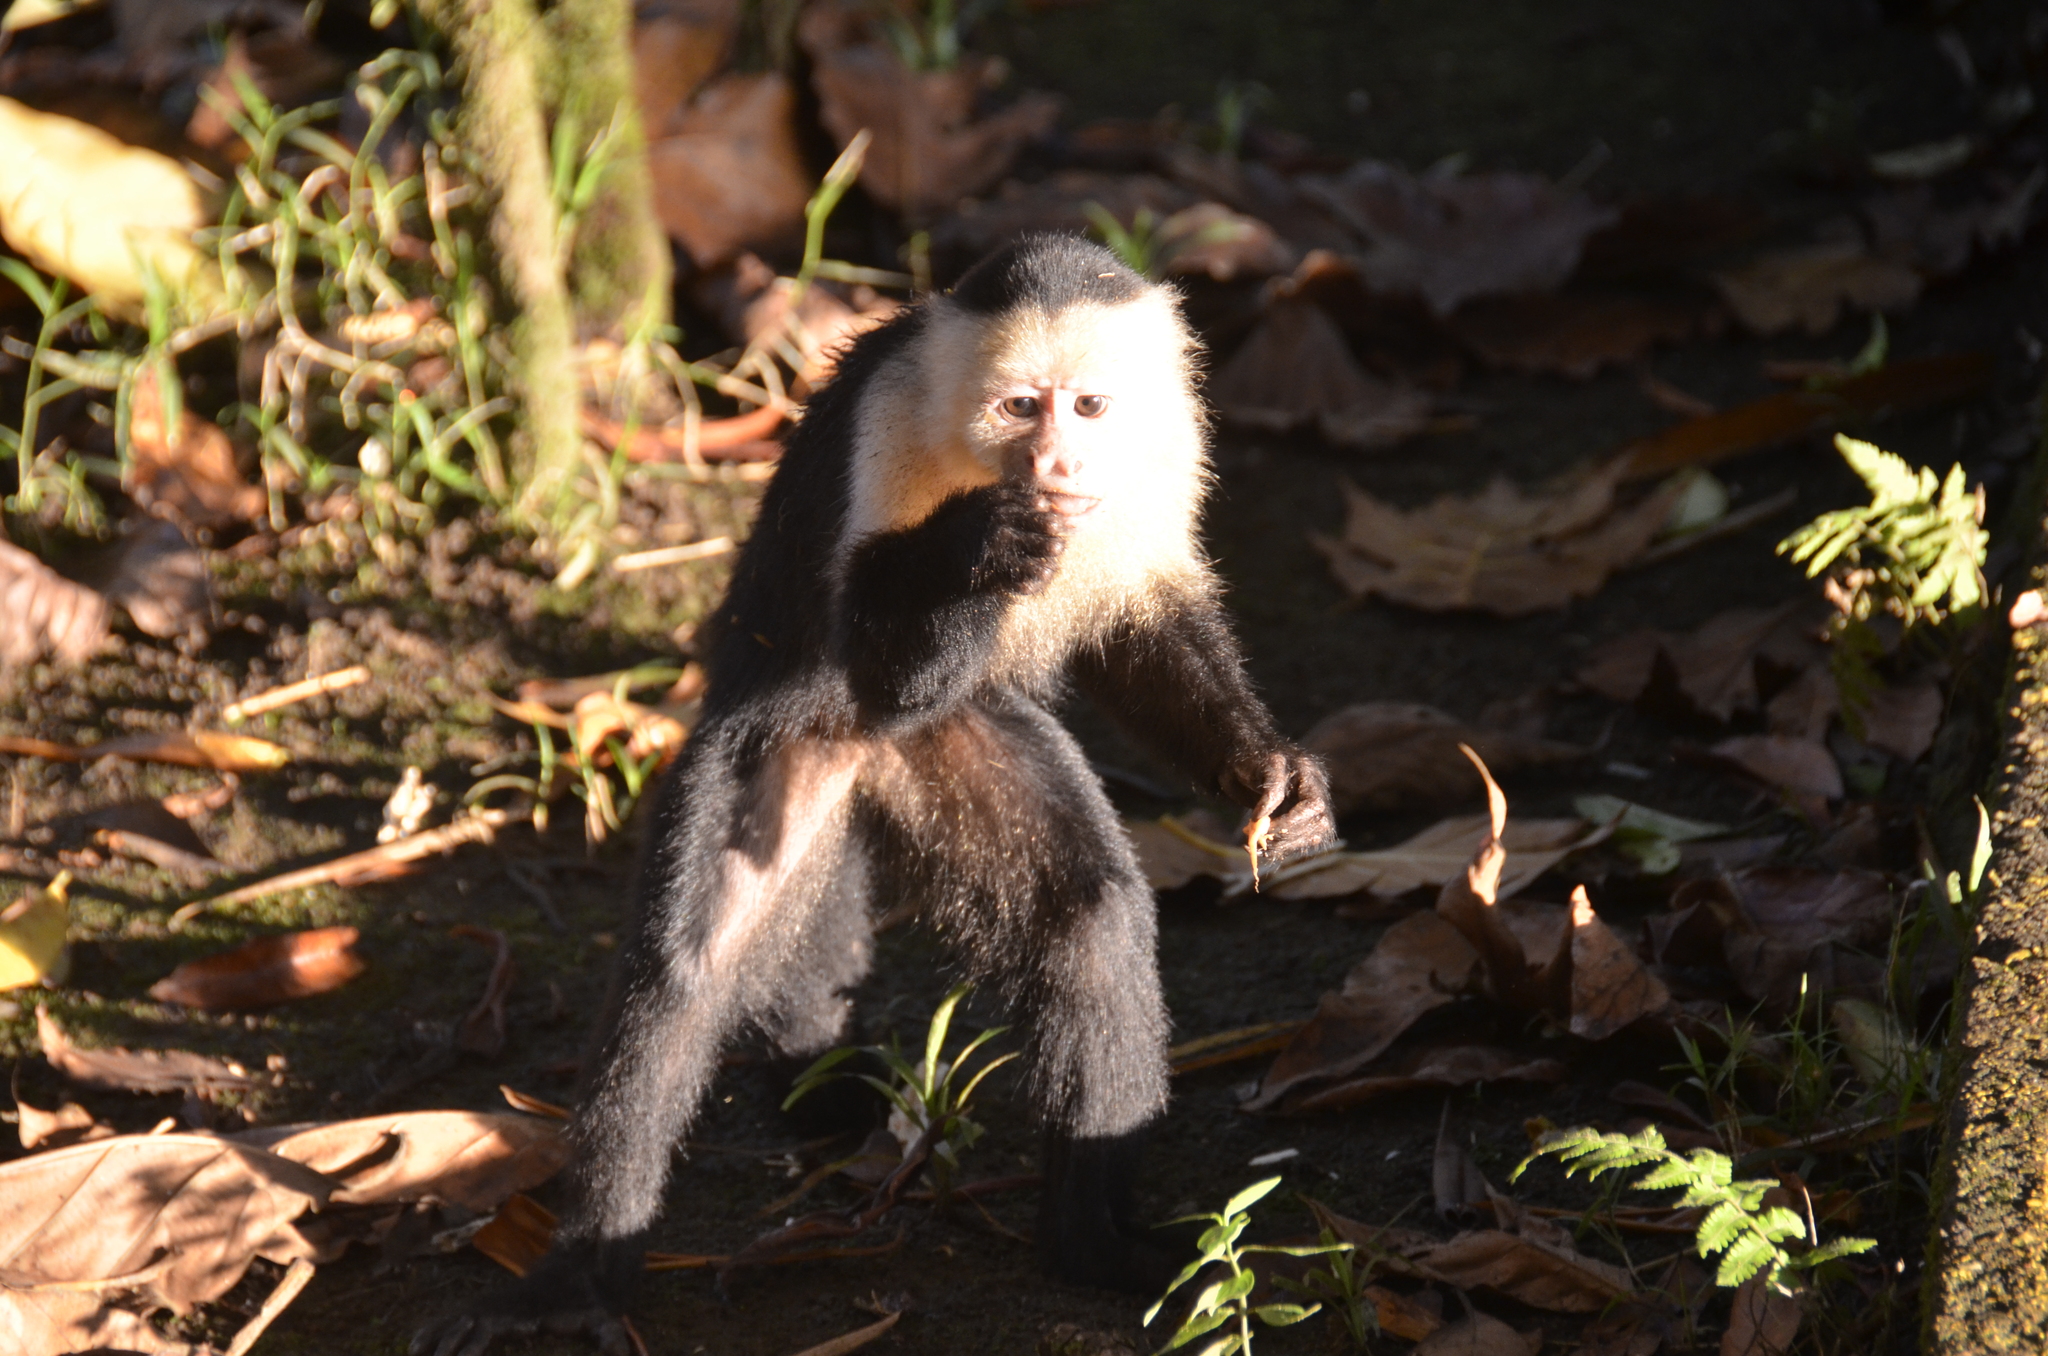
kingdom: Animalia
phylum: Chordata
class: Mammalia
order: Primates
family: Cebidae
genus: Cebus
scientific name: Cebus imitator
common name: Panamanian white-faced capuchin
